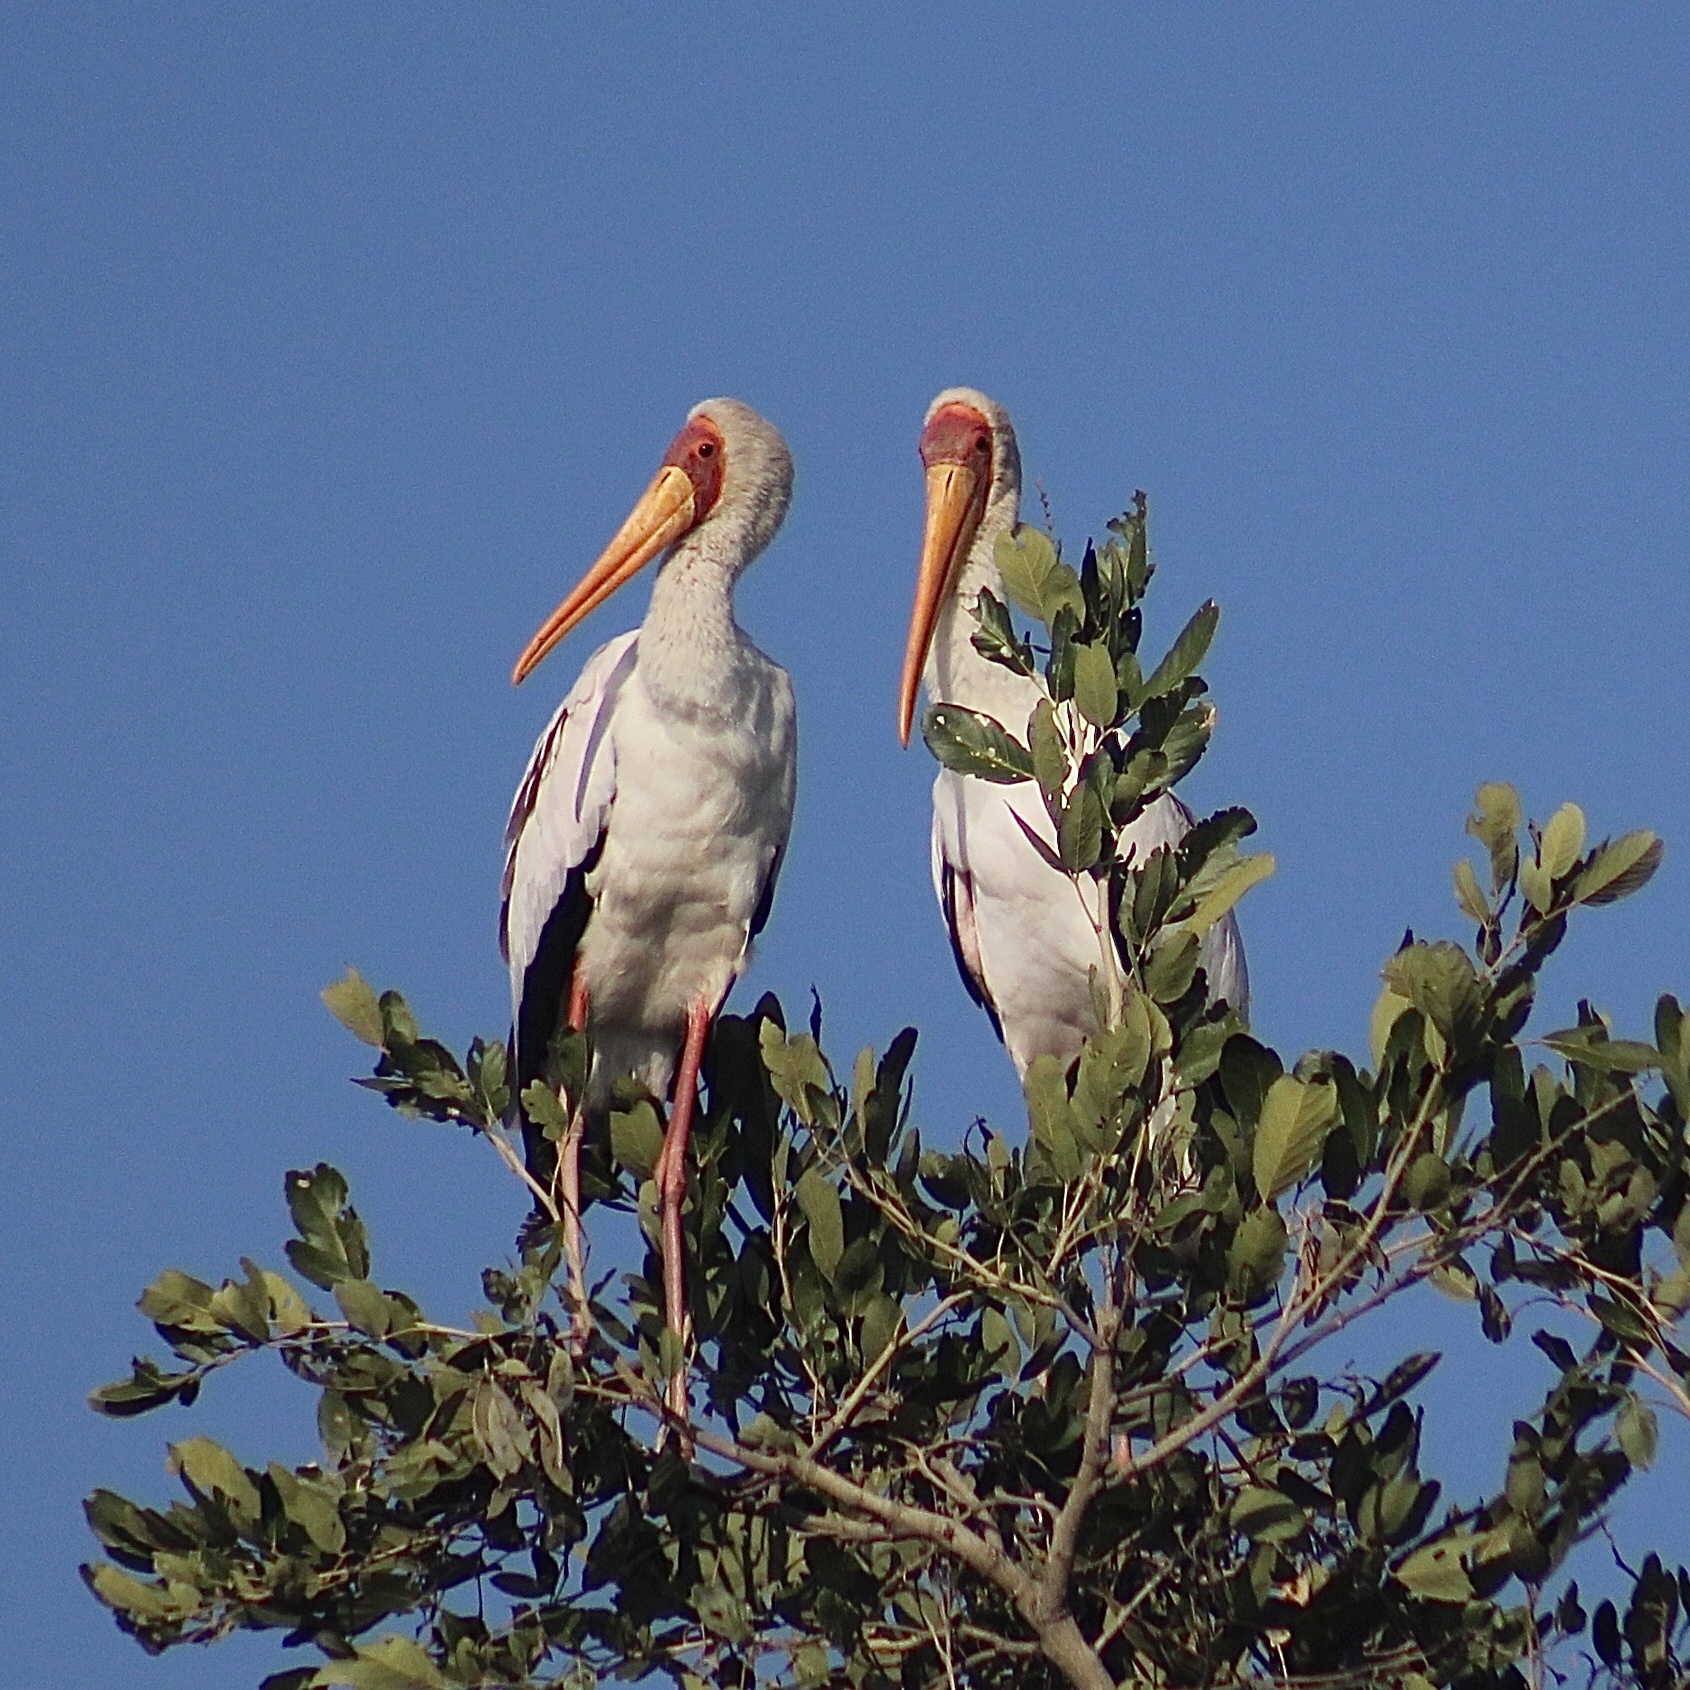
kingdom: Animalia
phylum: Chordata
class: Aves
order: Ciconiiformes
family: Ciconiidae
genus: Mycteria
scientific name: Mycteria ibis
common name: Yellow-billed stork
